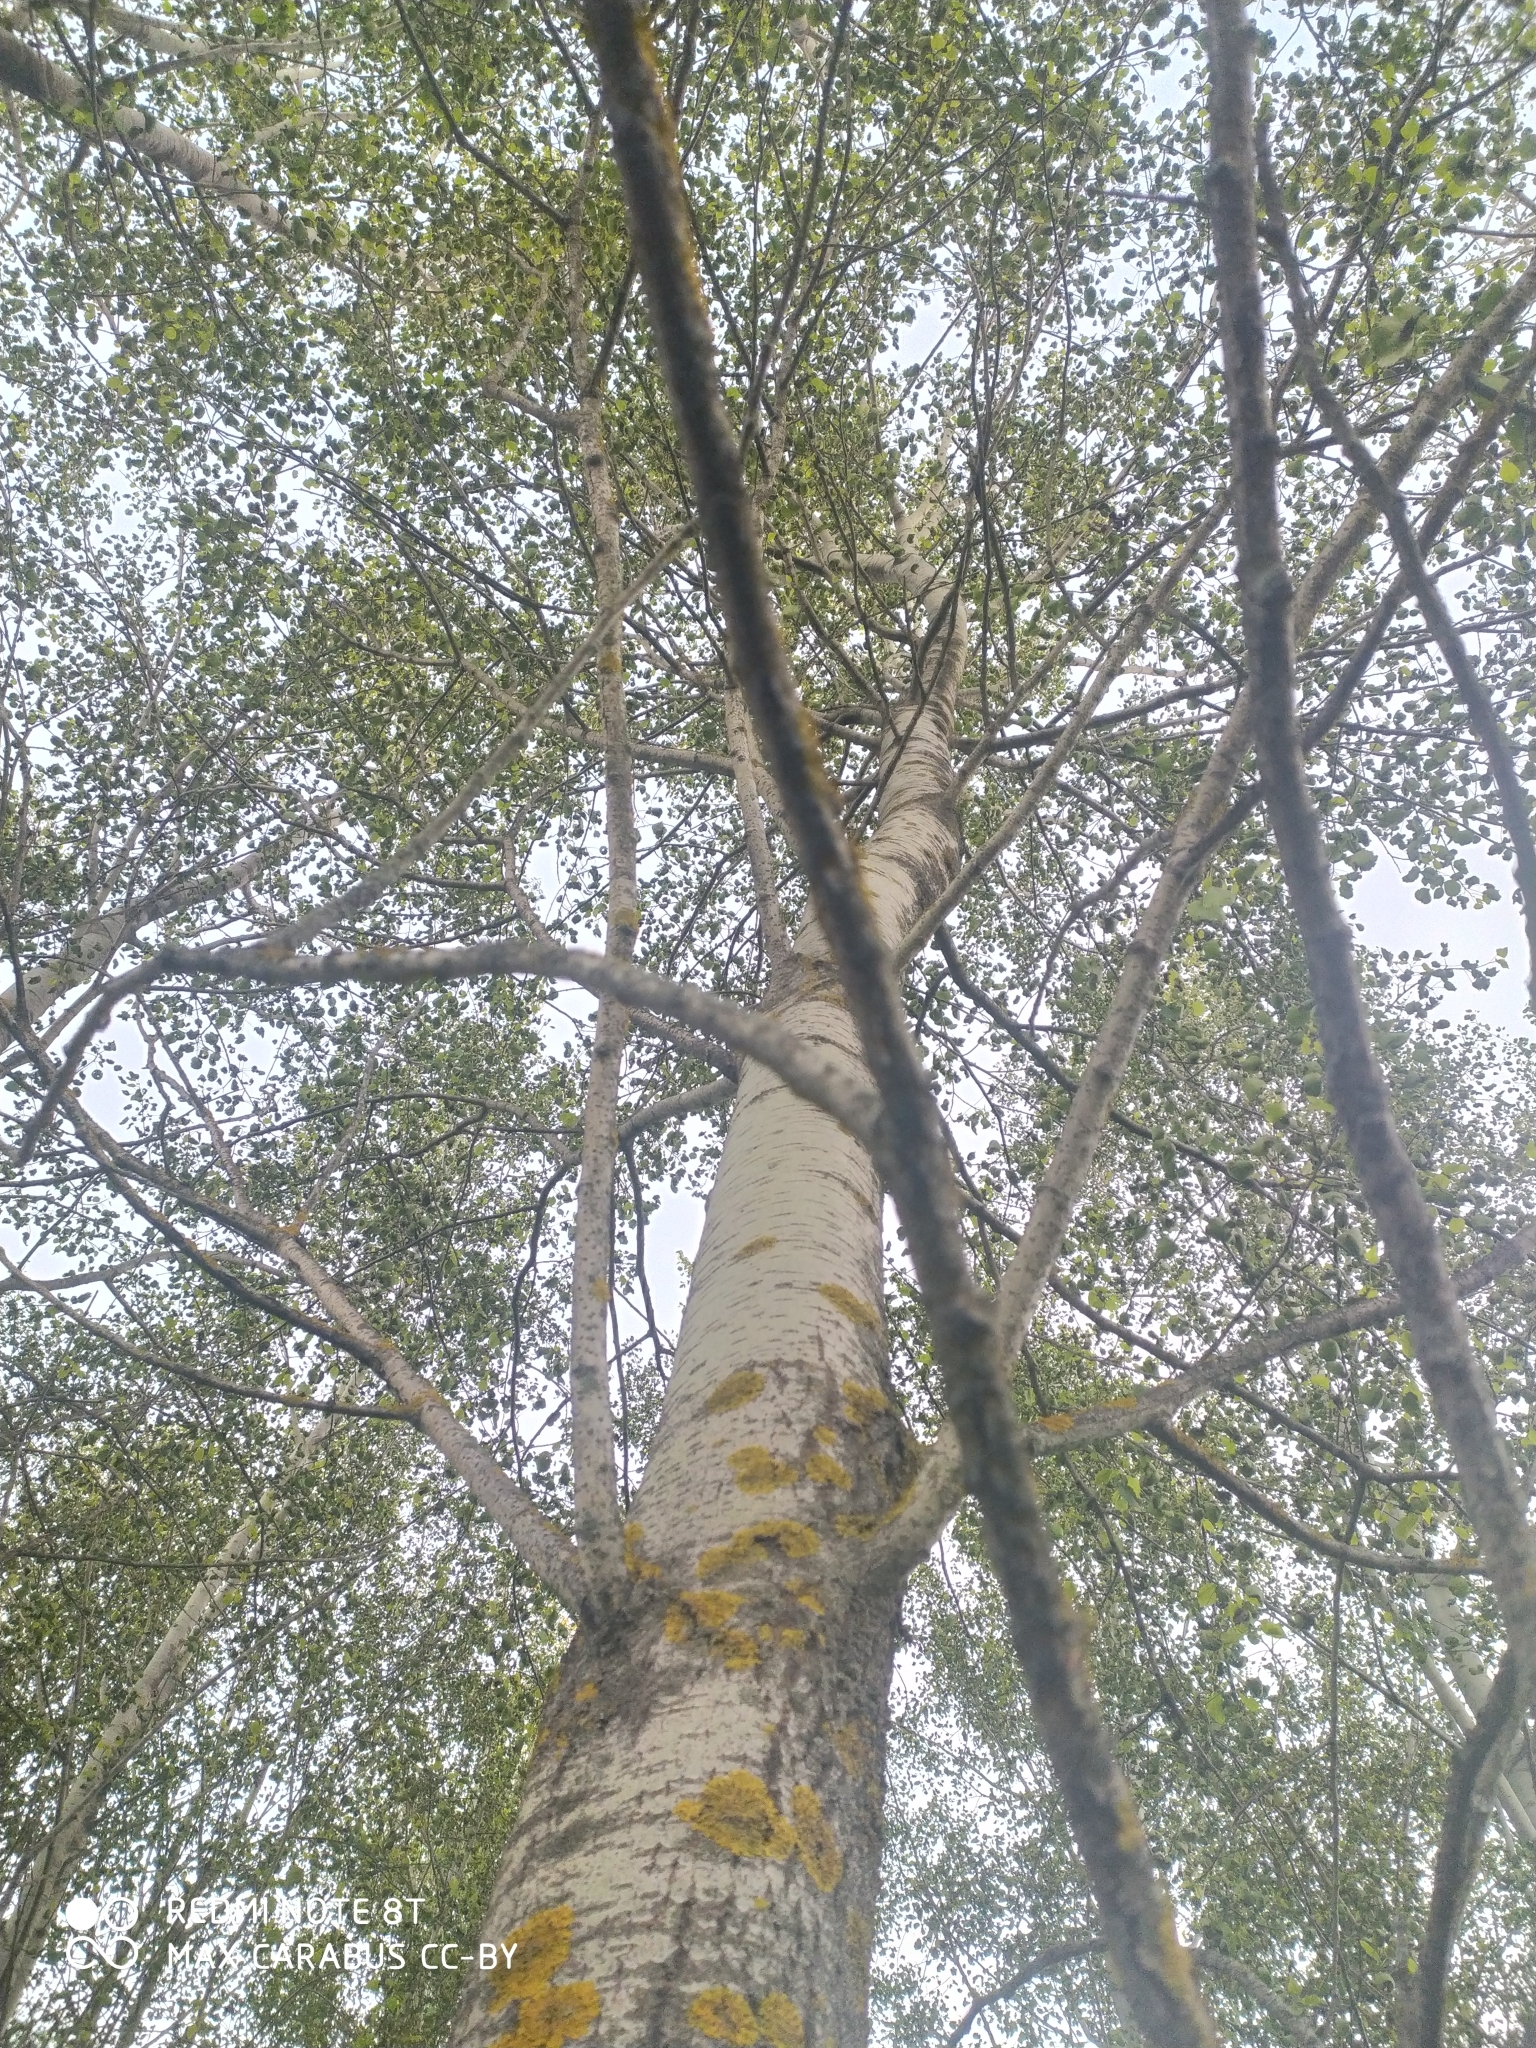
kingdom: Plantae
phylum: Tracheophyta
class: Magnoliopsida
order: Malpighiales
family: Salicaceae
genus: Populus
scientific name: Populus tremula
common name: European aspen
